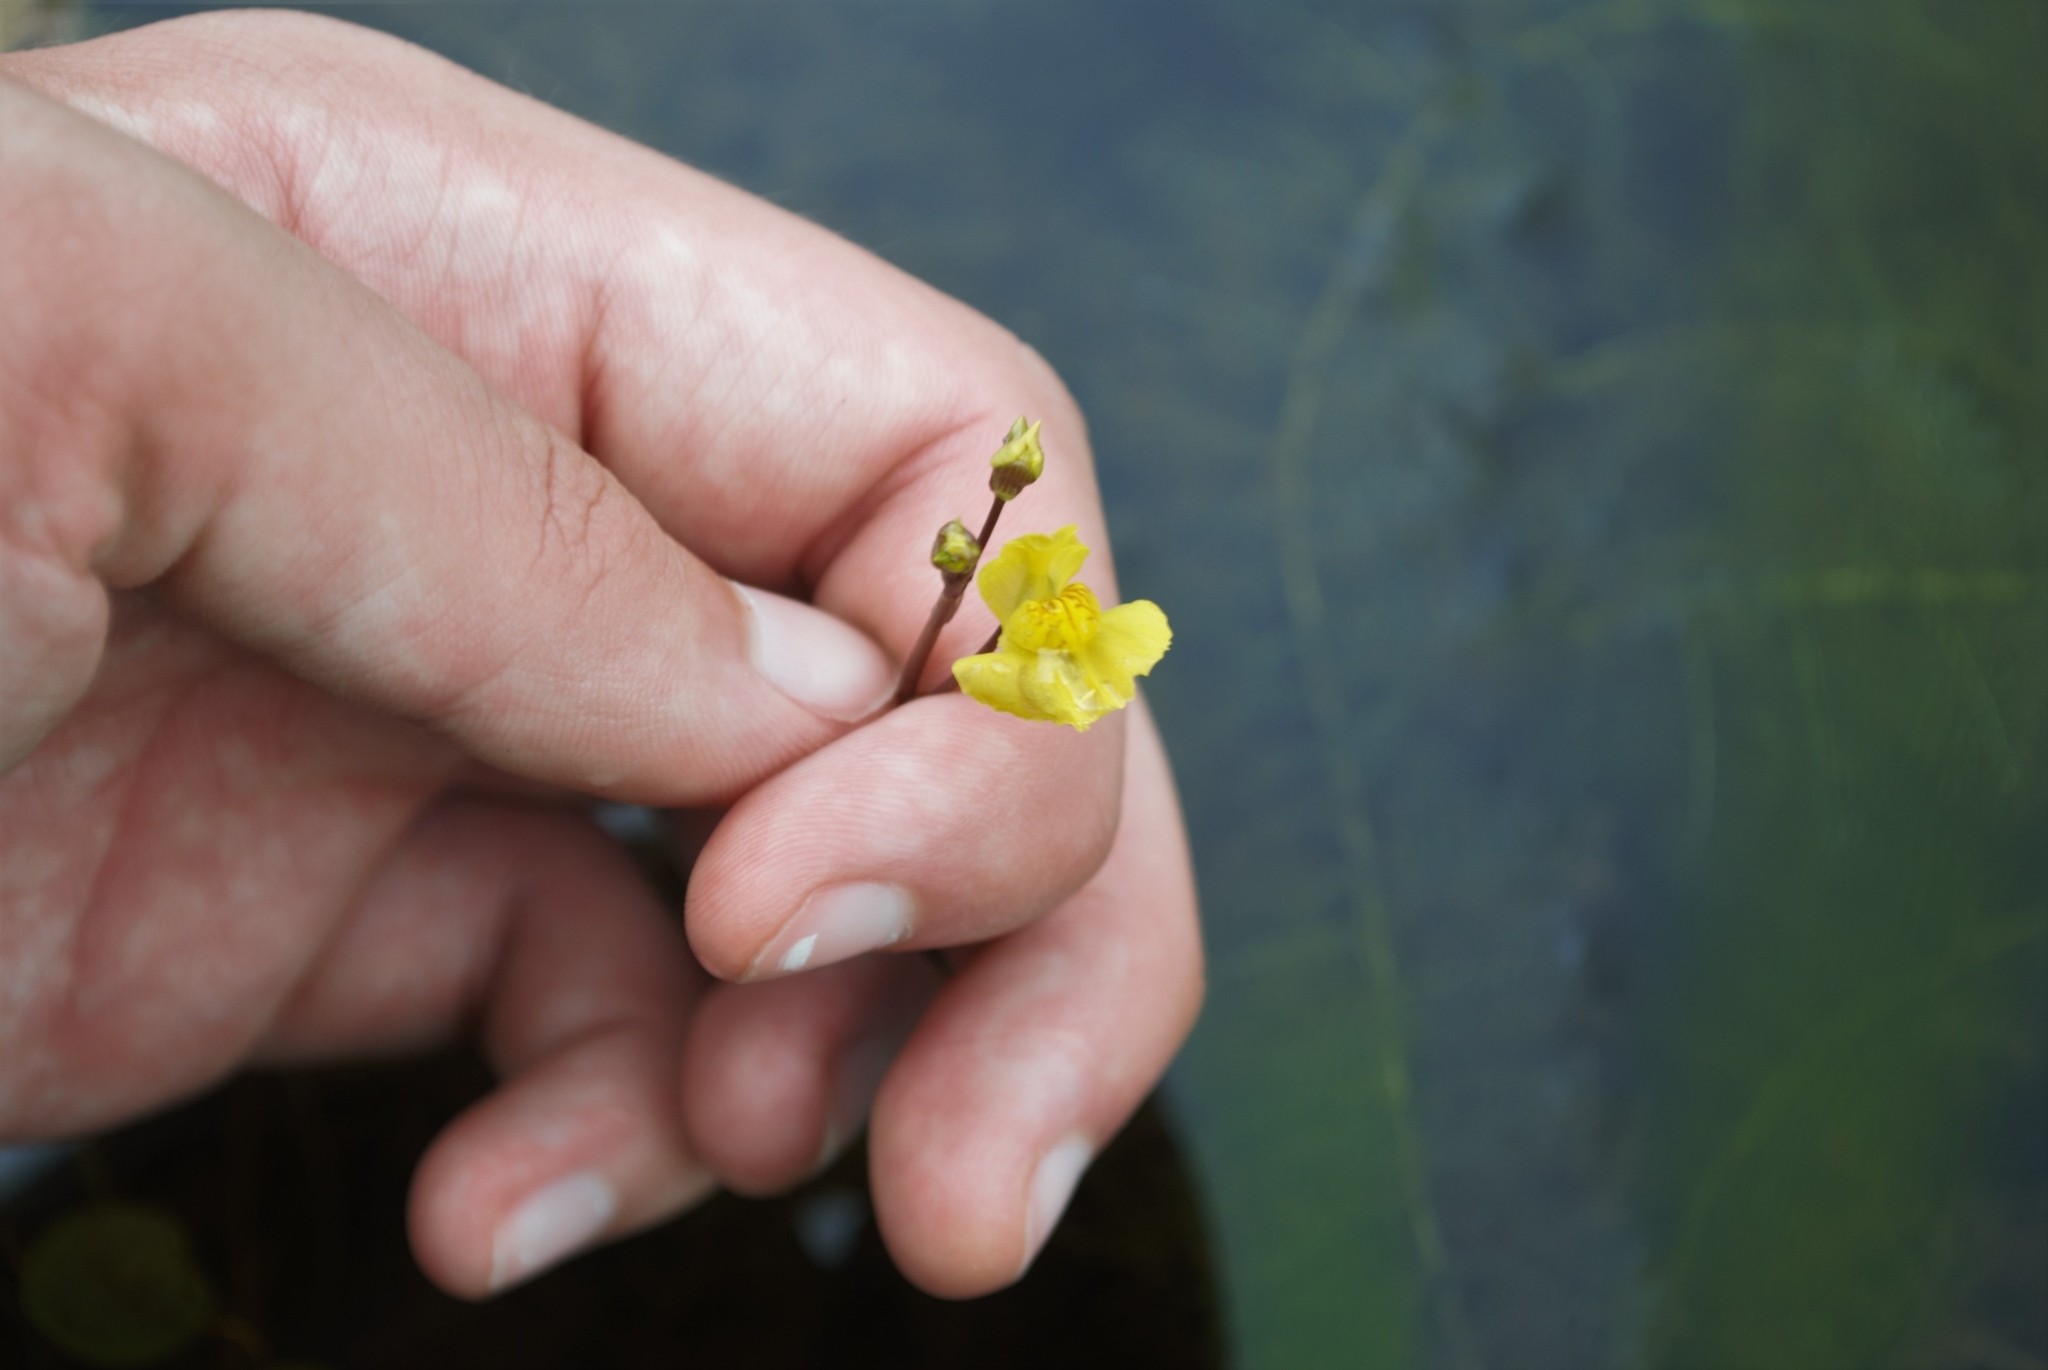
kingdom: Plantae
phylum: Tracheophyta
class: Magnoliopsida
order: Lamiales
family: Lentibulariaceae
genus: Utricularia
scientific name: Utricularia australis
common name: Bladderwort
